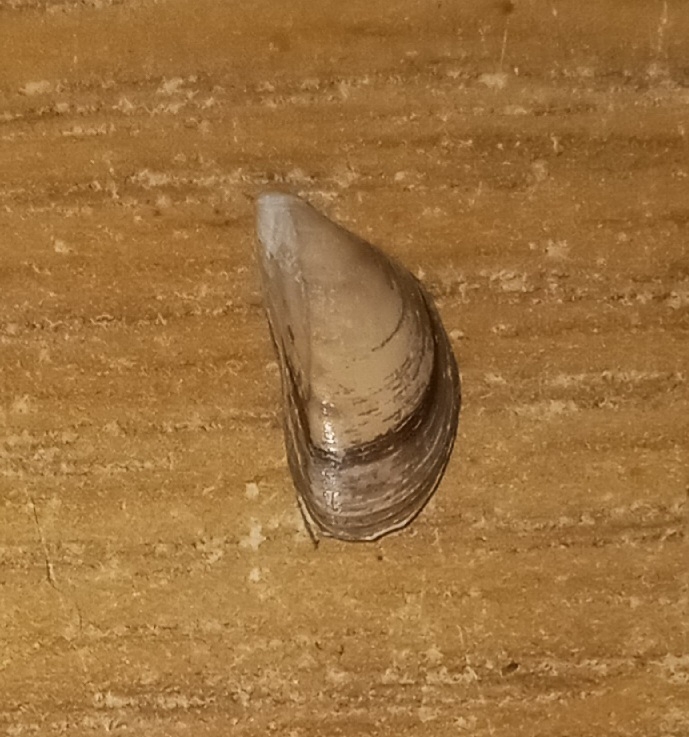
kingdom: Animalia
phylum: Mollusca
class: Bivalvia
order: Myida
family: Dreissenidae
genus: Dreissena
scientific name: Dreissena polymorpha
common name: Zebra mussel
